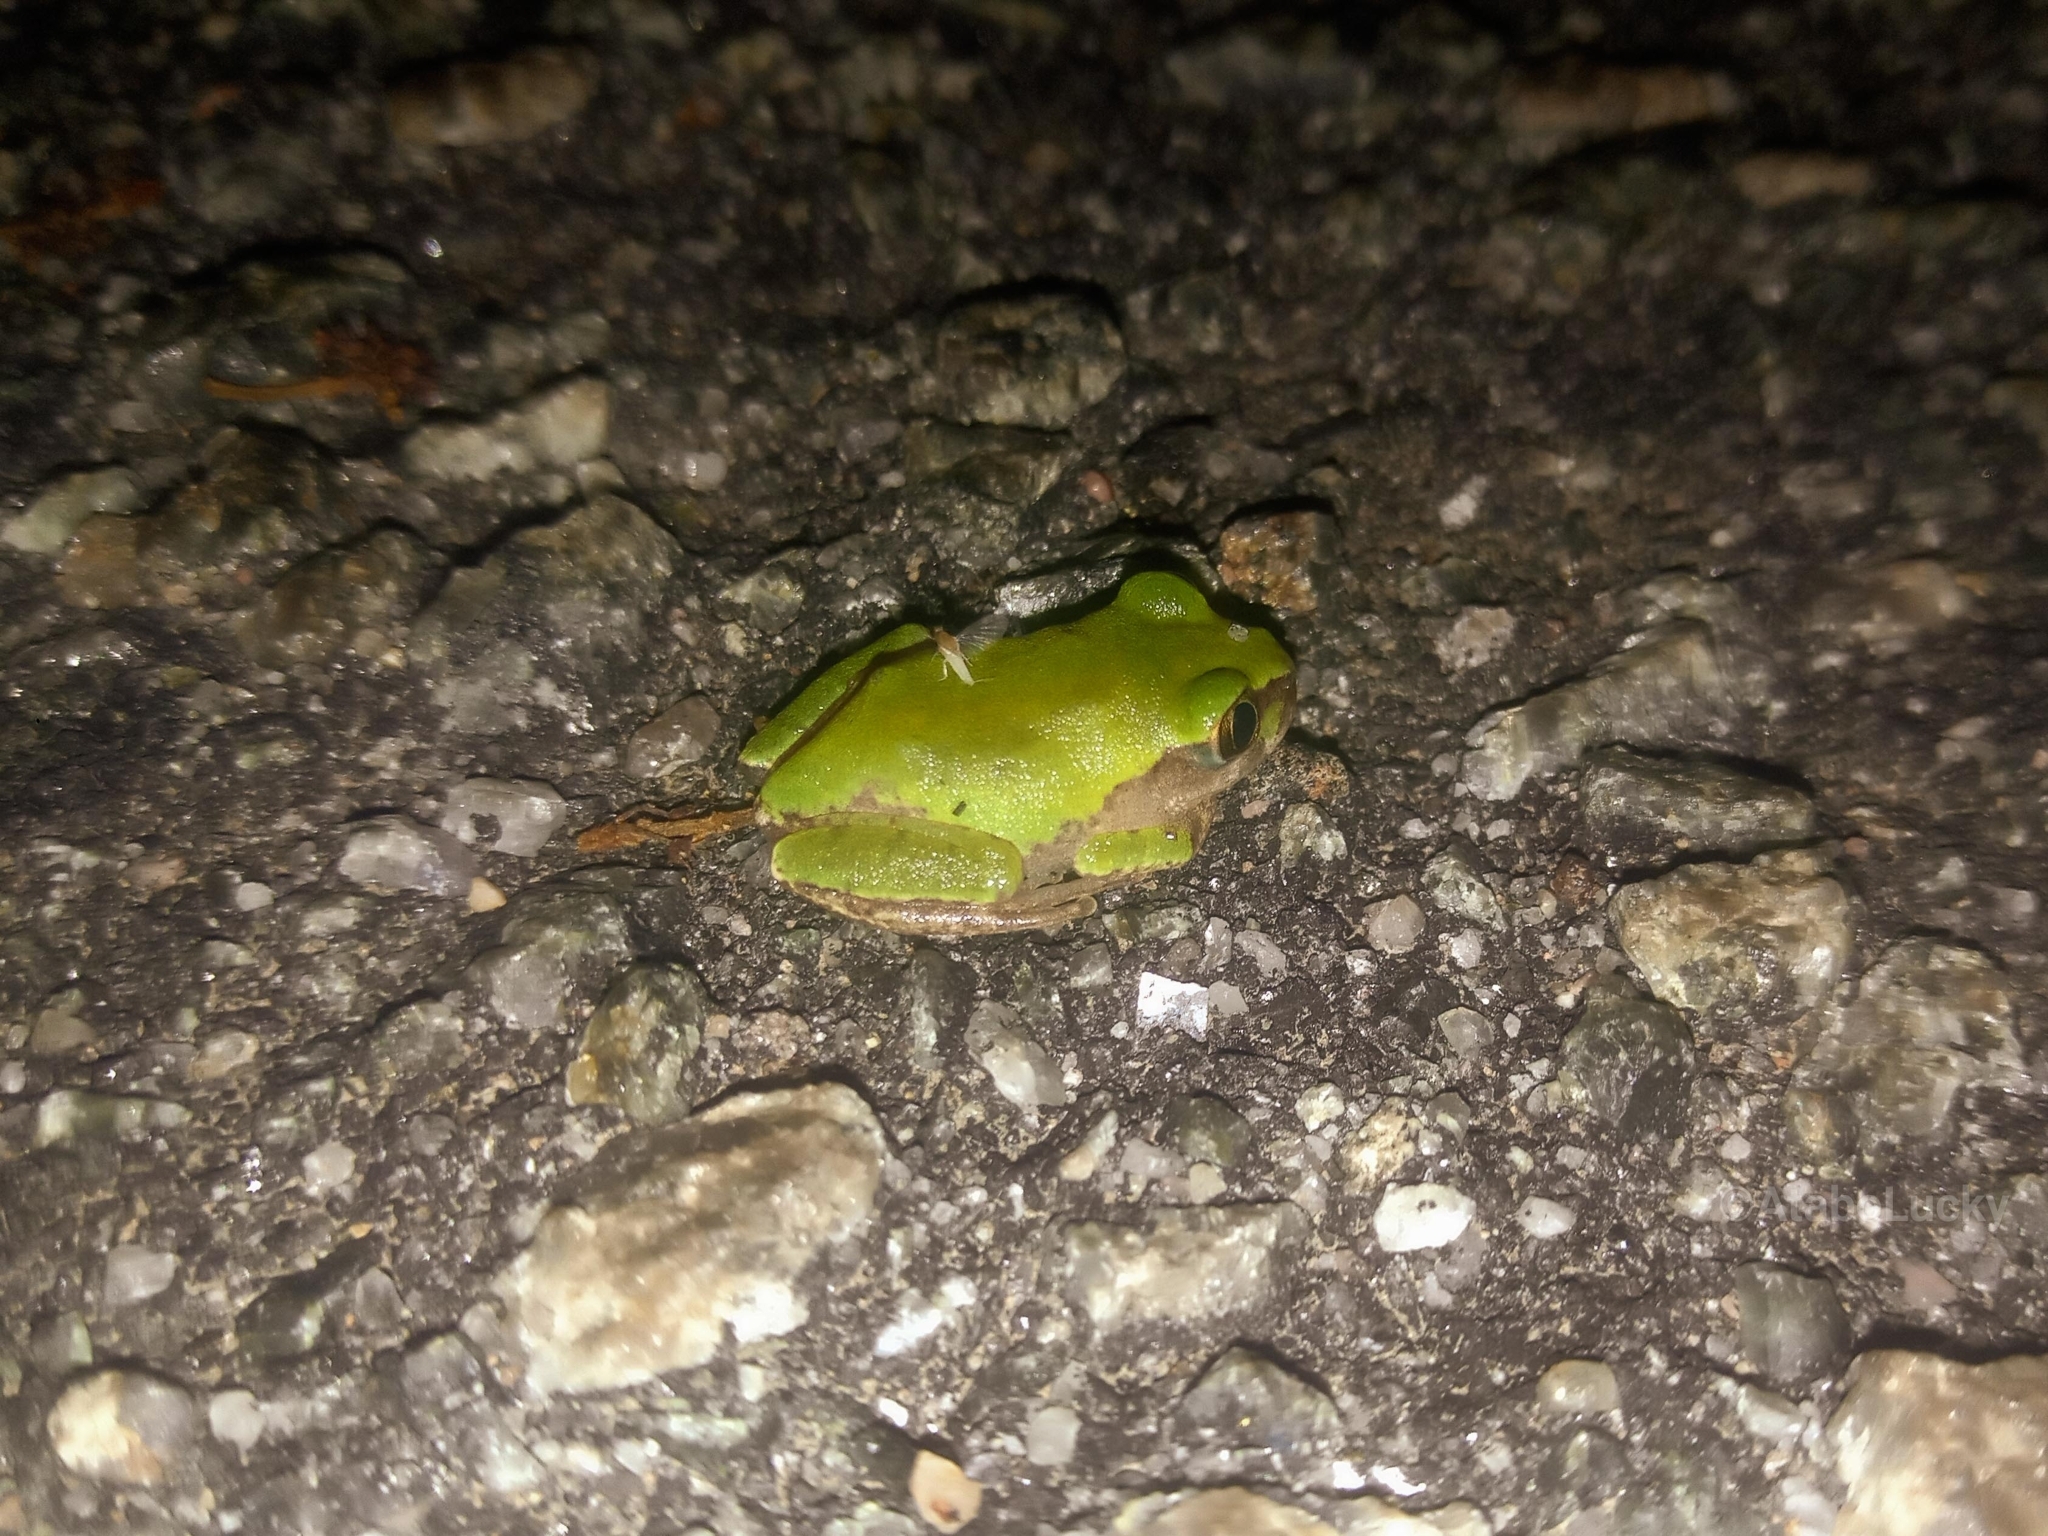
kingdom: Animalia
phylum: Chordata
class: Amphibia
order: Anura
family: Arthroleptidae
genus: Leptopelis
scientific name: Leptopelis viridis
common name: Savannah tree frog
